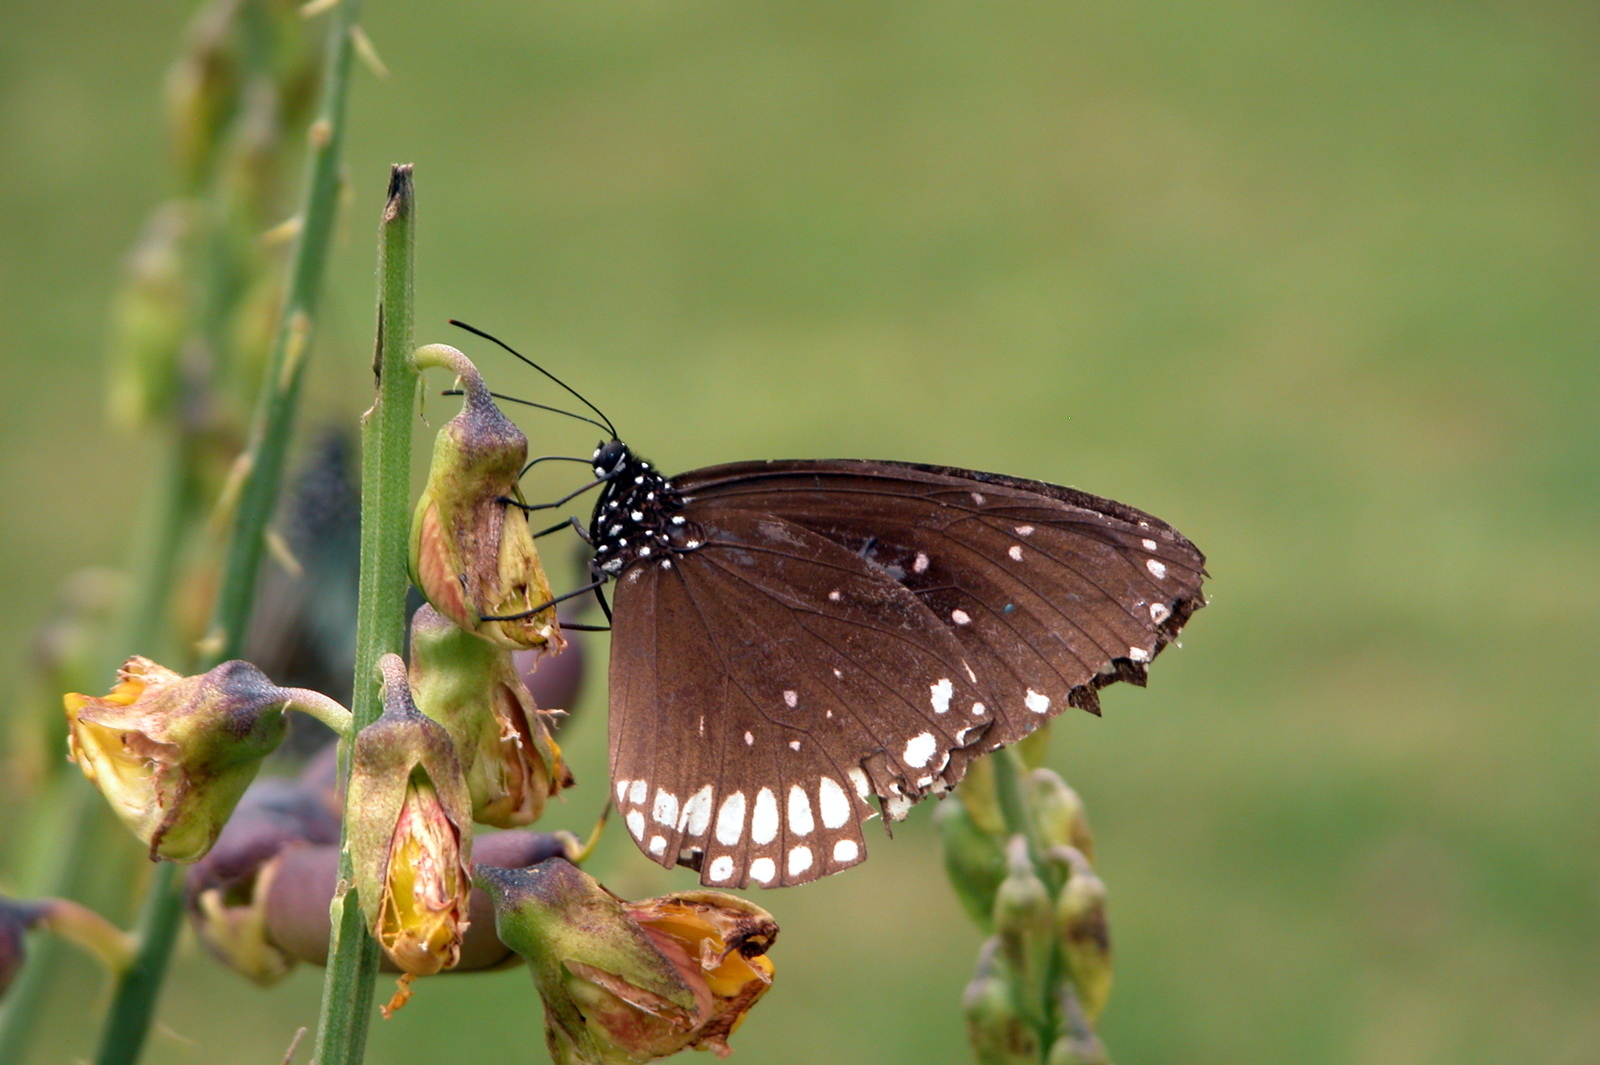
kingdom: Animalia
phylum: Arthropoda
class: Insecta
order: Lepidoptera
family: Nymphalidae
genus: Euploea
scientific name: Euploea sylvester
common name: Double-branded crow butterfly
